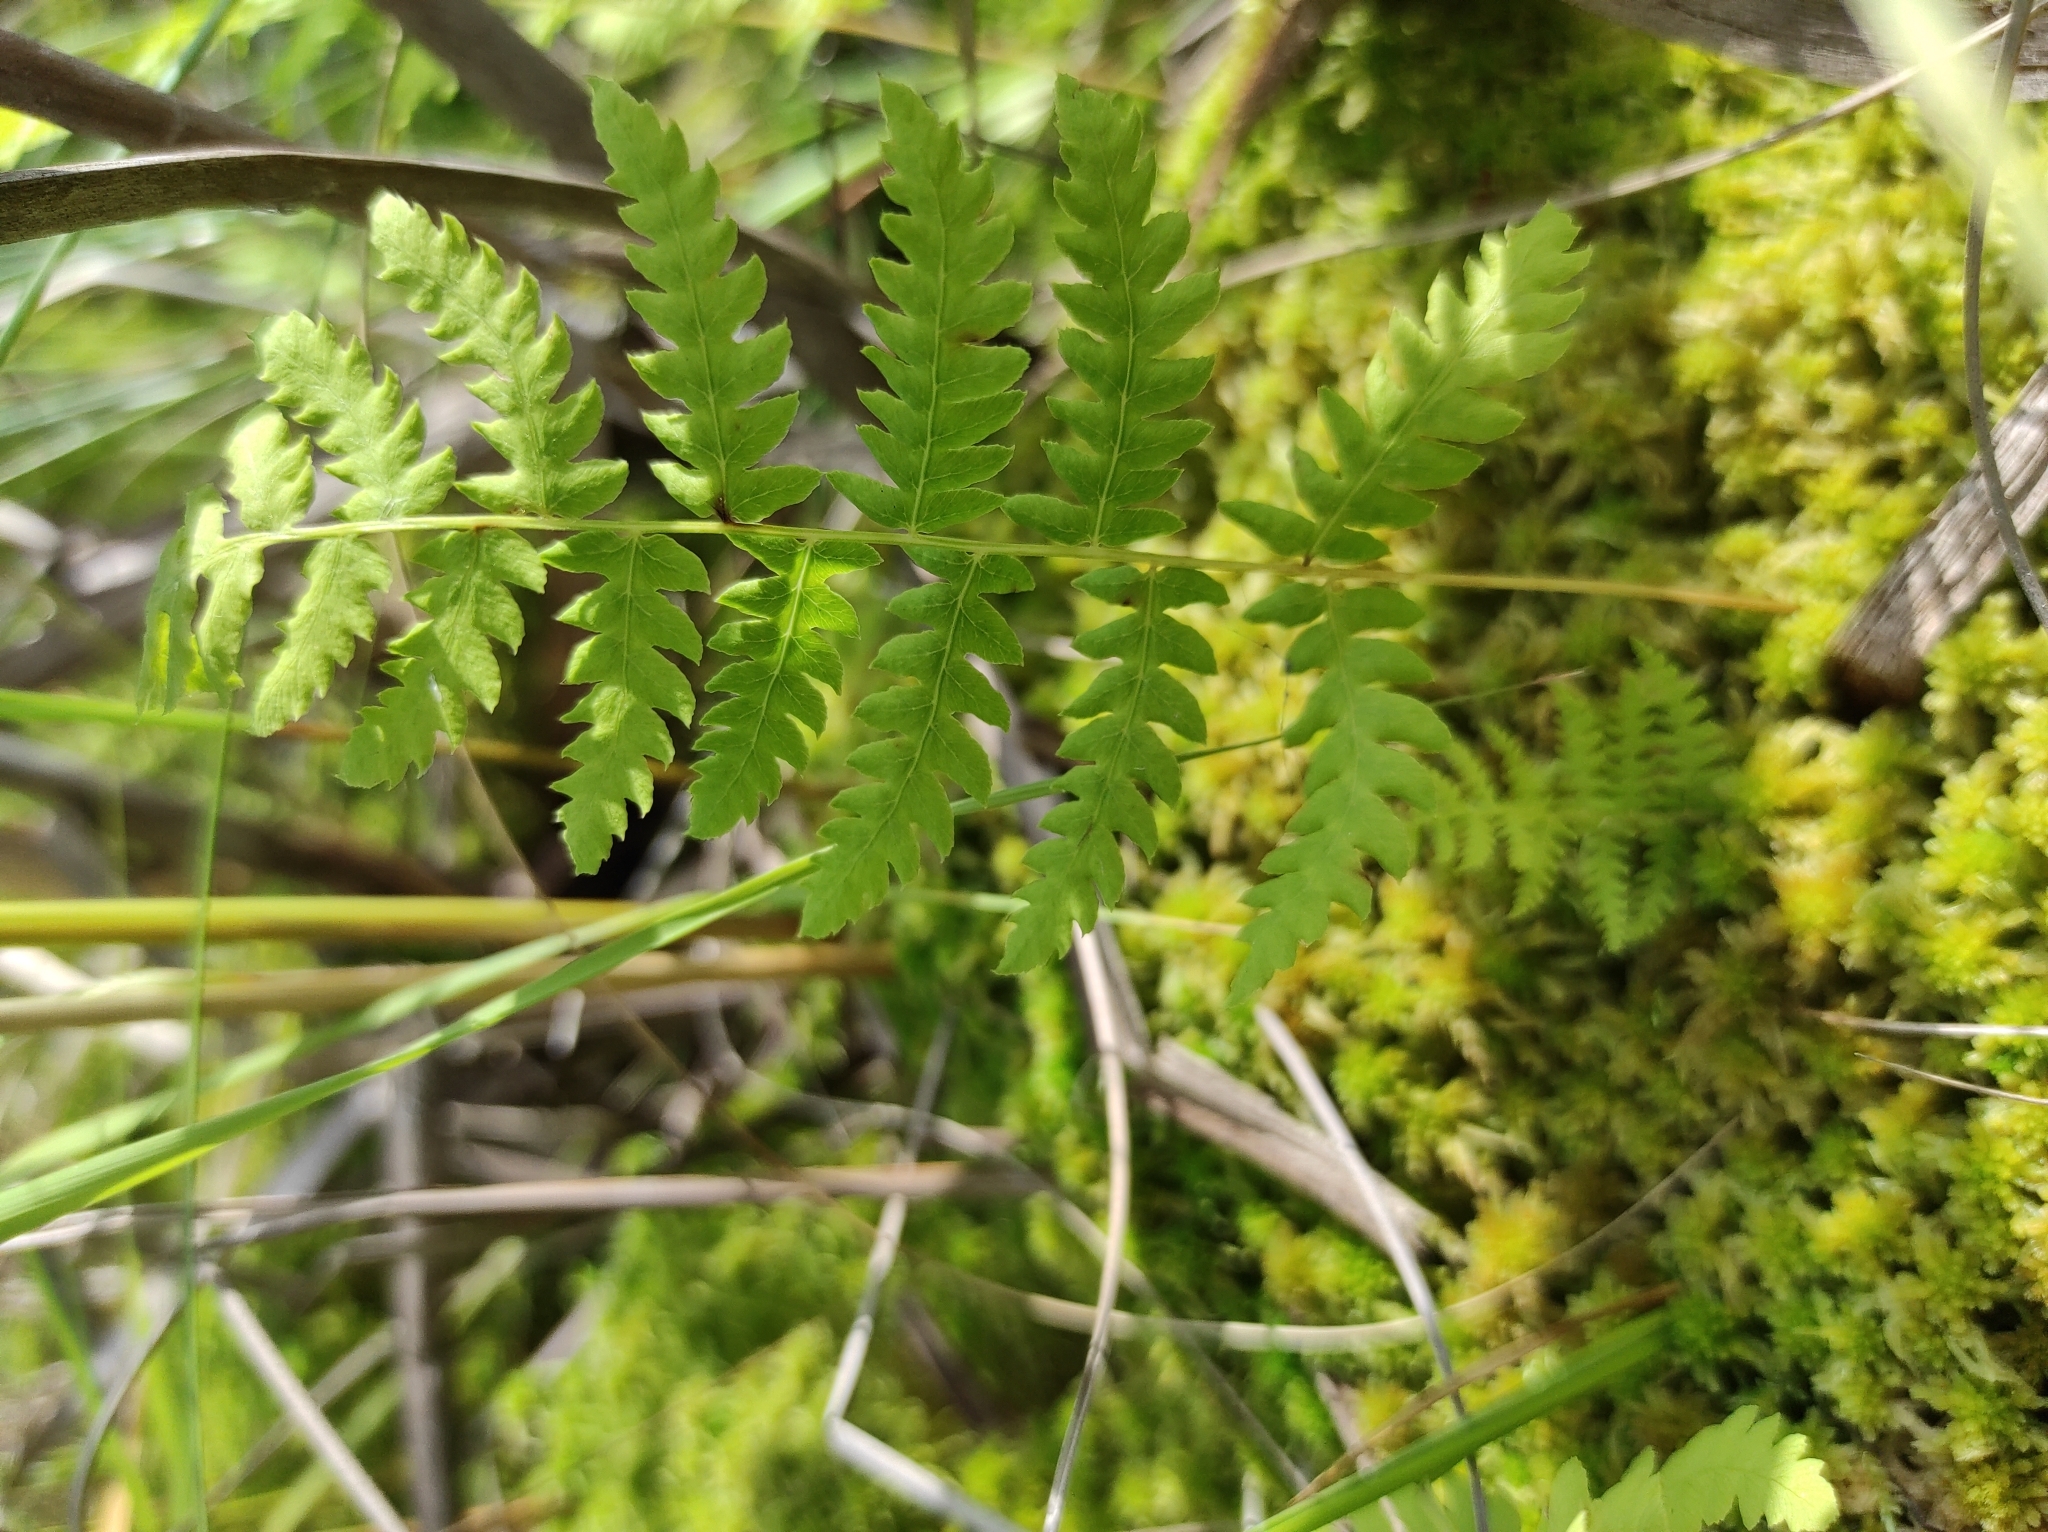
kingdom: Plantae
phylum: Tracheophyta
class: Polypodiopsida
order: Polypodiales
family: Thelypteridaceae
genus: Thelypteris
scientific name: Thelypteris palustris
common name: Marsh fern
